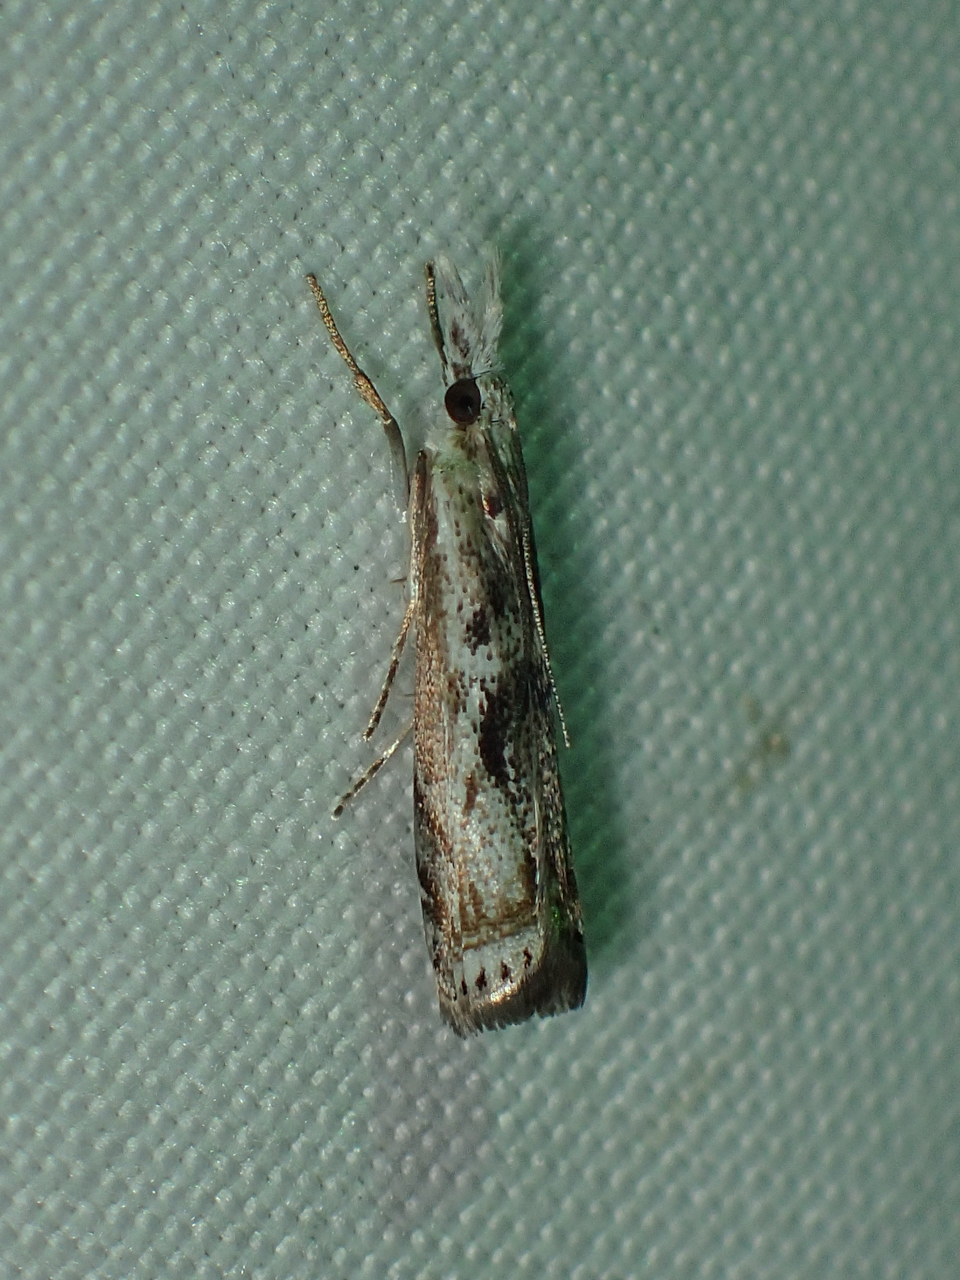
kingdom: Animalia
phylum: Arthropoda
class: Insecta
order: Lepidoptera
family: Crambidae
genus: Microcrambus
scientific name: Microcrambus elegans
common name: Elegant grass-veneer
